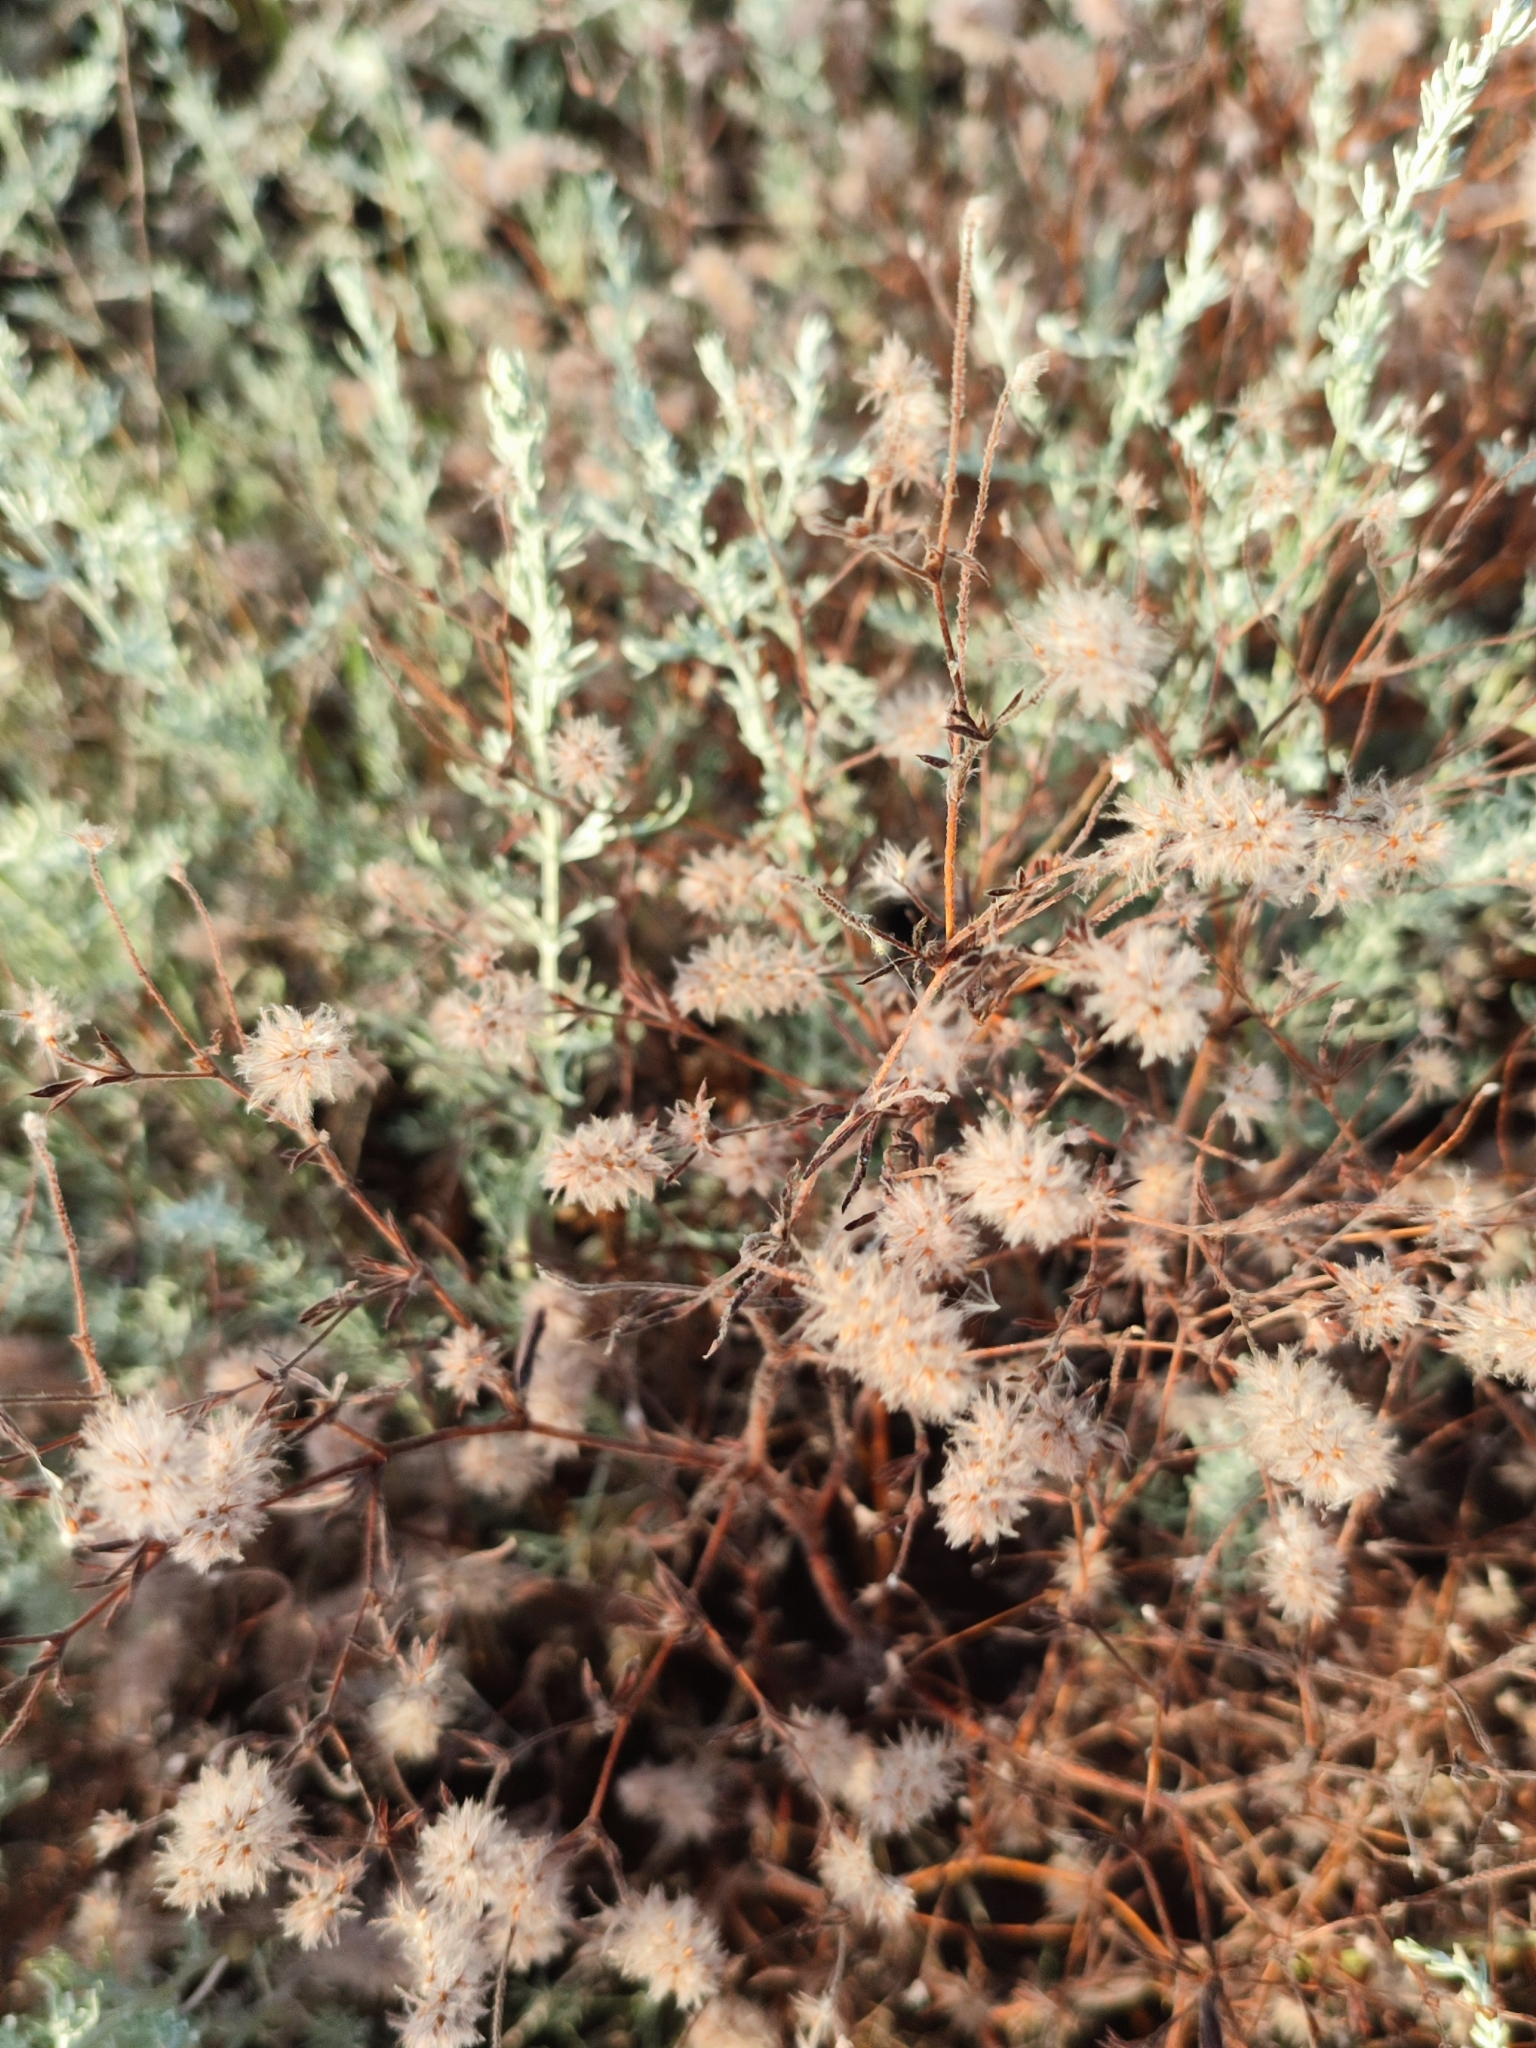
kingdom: Plantae
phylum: Tracheophyta
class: Magnoliopsida
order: Fabales
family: Fabaceae
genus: Trifolium
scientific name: Trifolium arvense
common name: Hare's-foot clover
